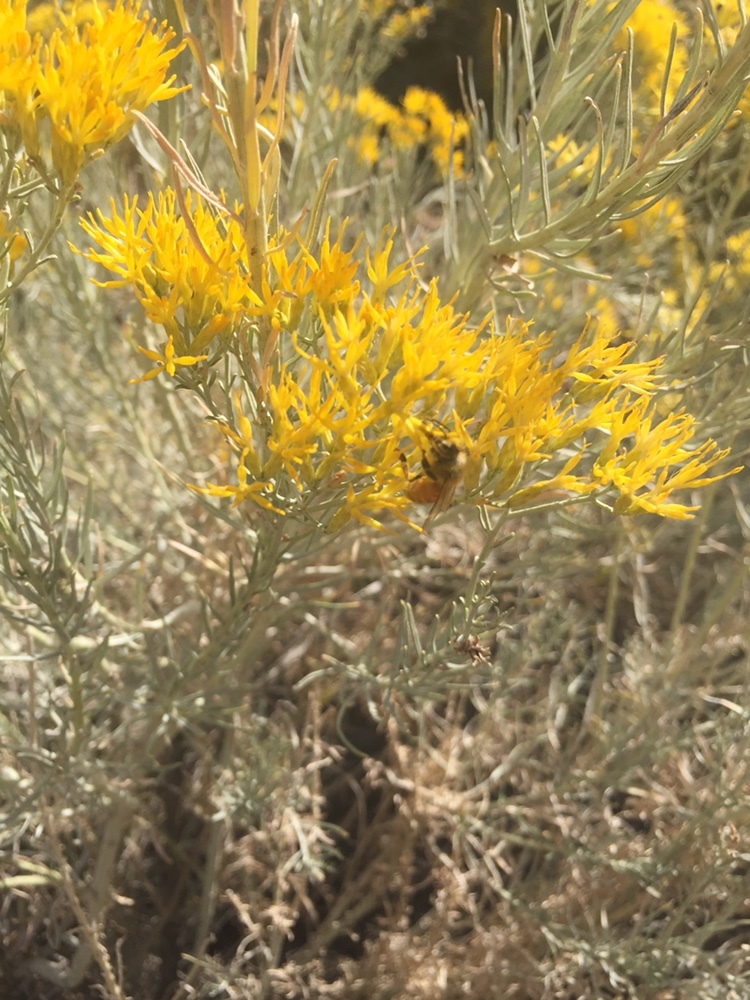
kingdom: Animalia
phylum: Arthropoda
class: Insecta
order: Hymenoptera
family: Apidae
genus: Apis
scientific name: Apis mellifera
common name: Honey bee
